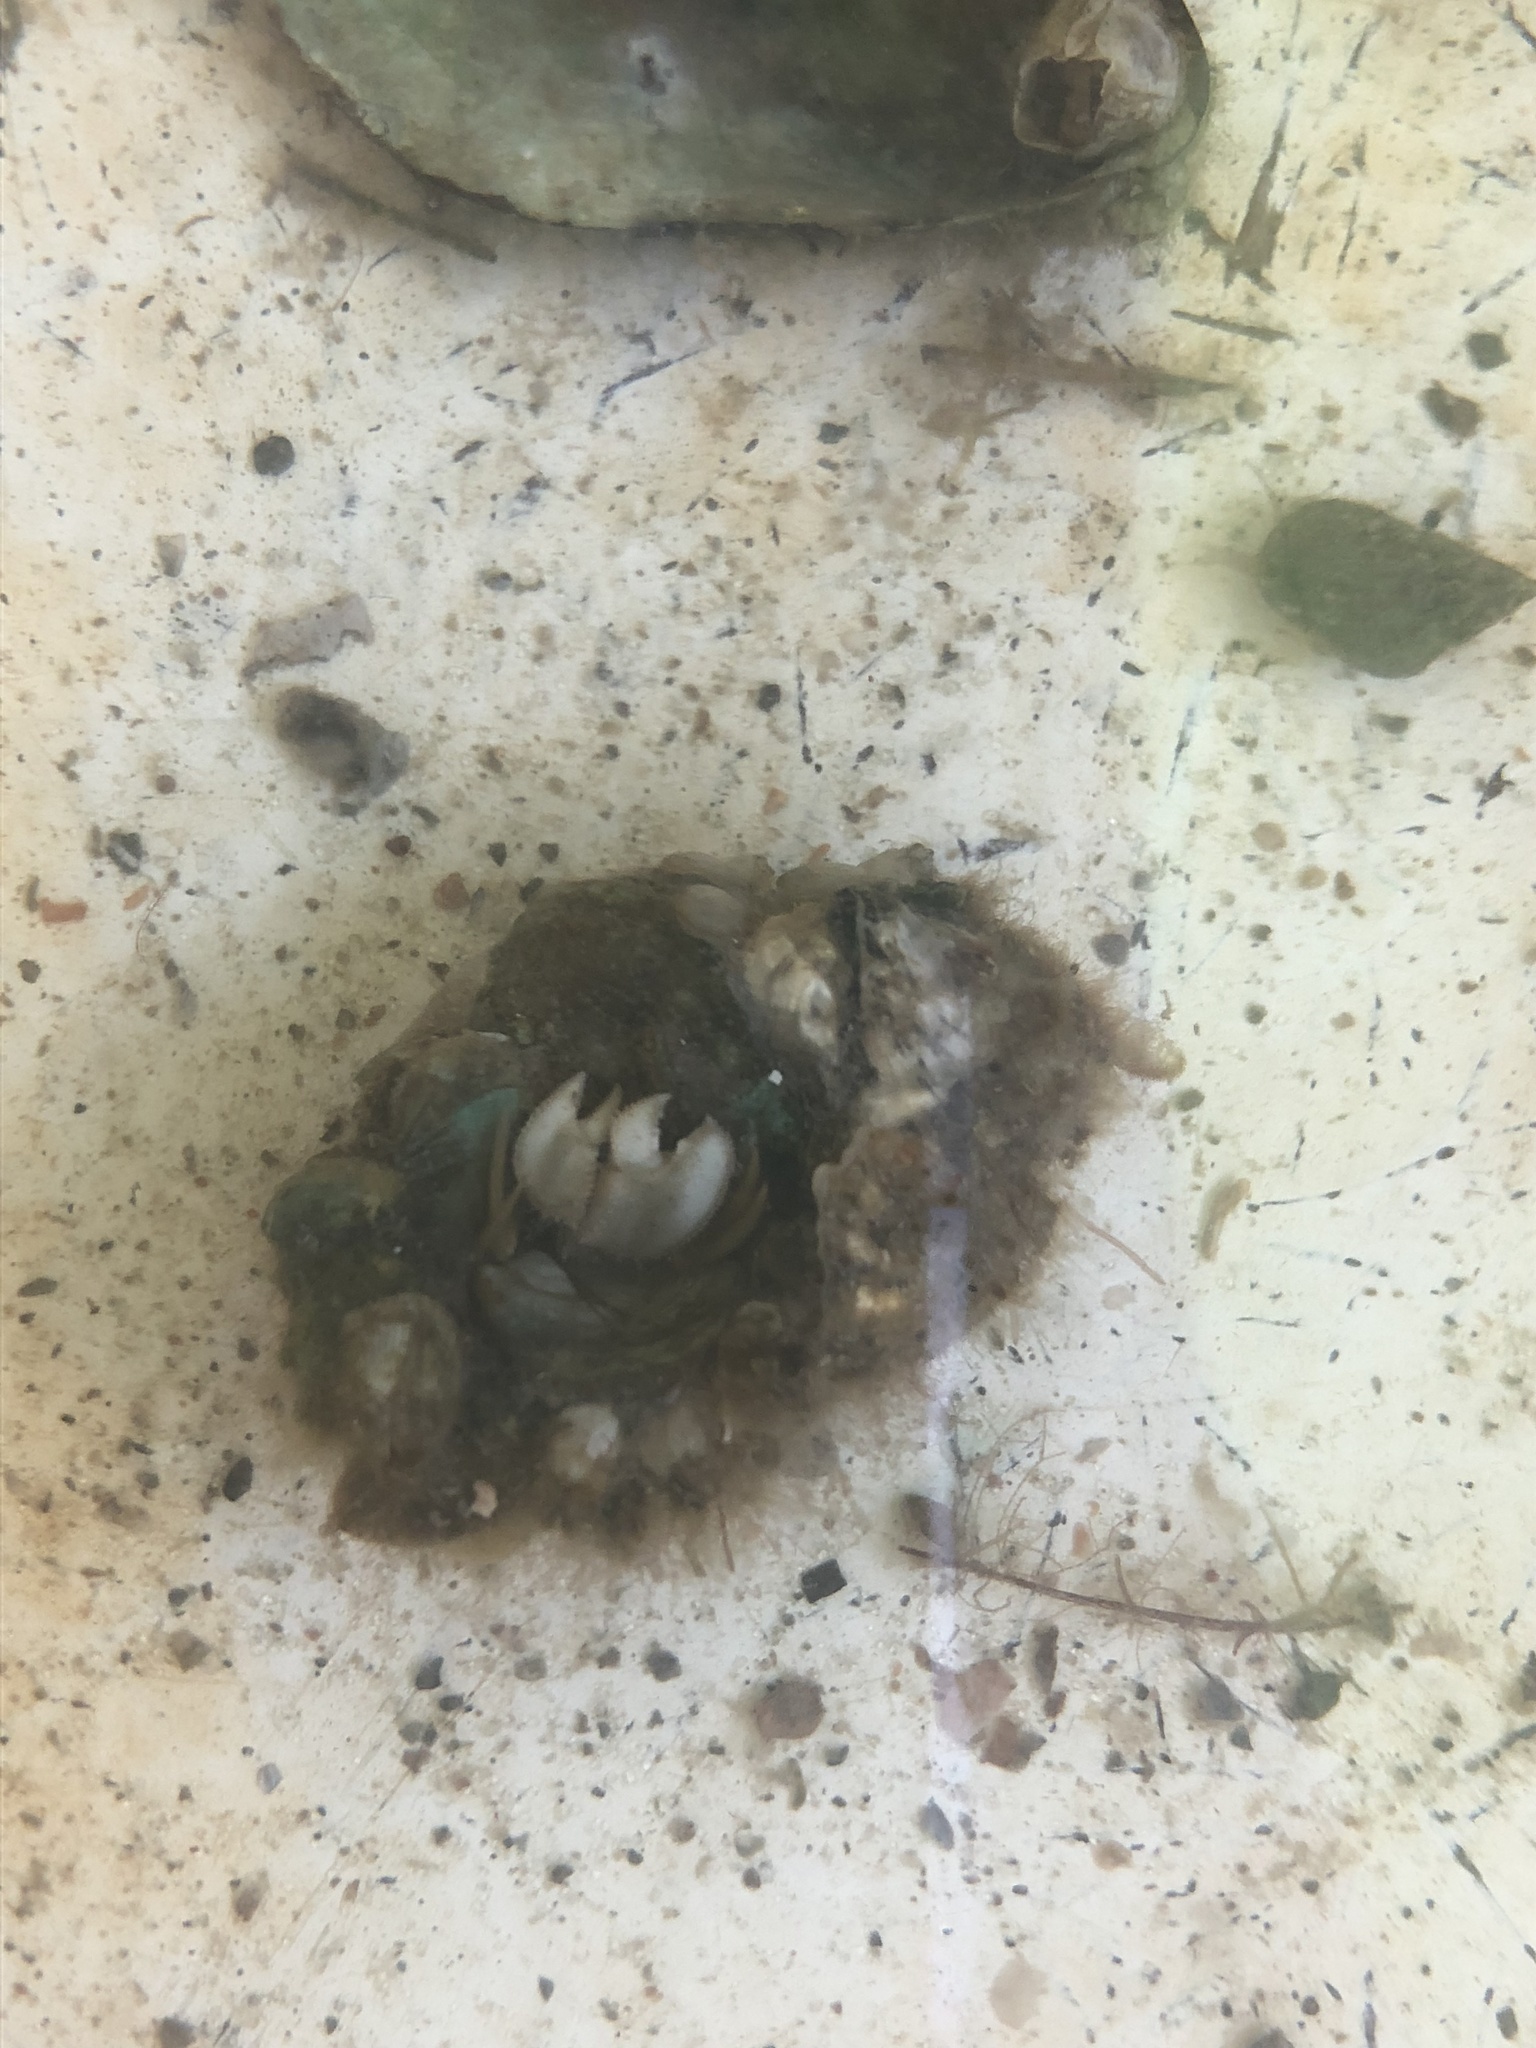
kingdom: Animalia
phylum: Arthropoda
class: Malacostraca
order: Decapoda
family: Paguridae
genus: Pagurus
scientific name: Pagurus pollicaris
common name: Flatclaw hermit
